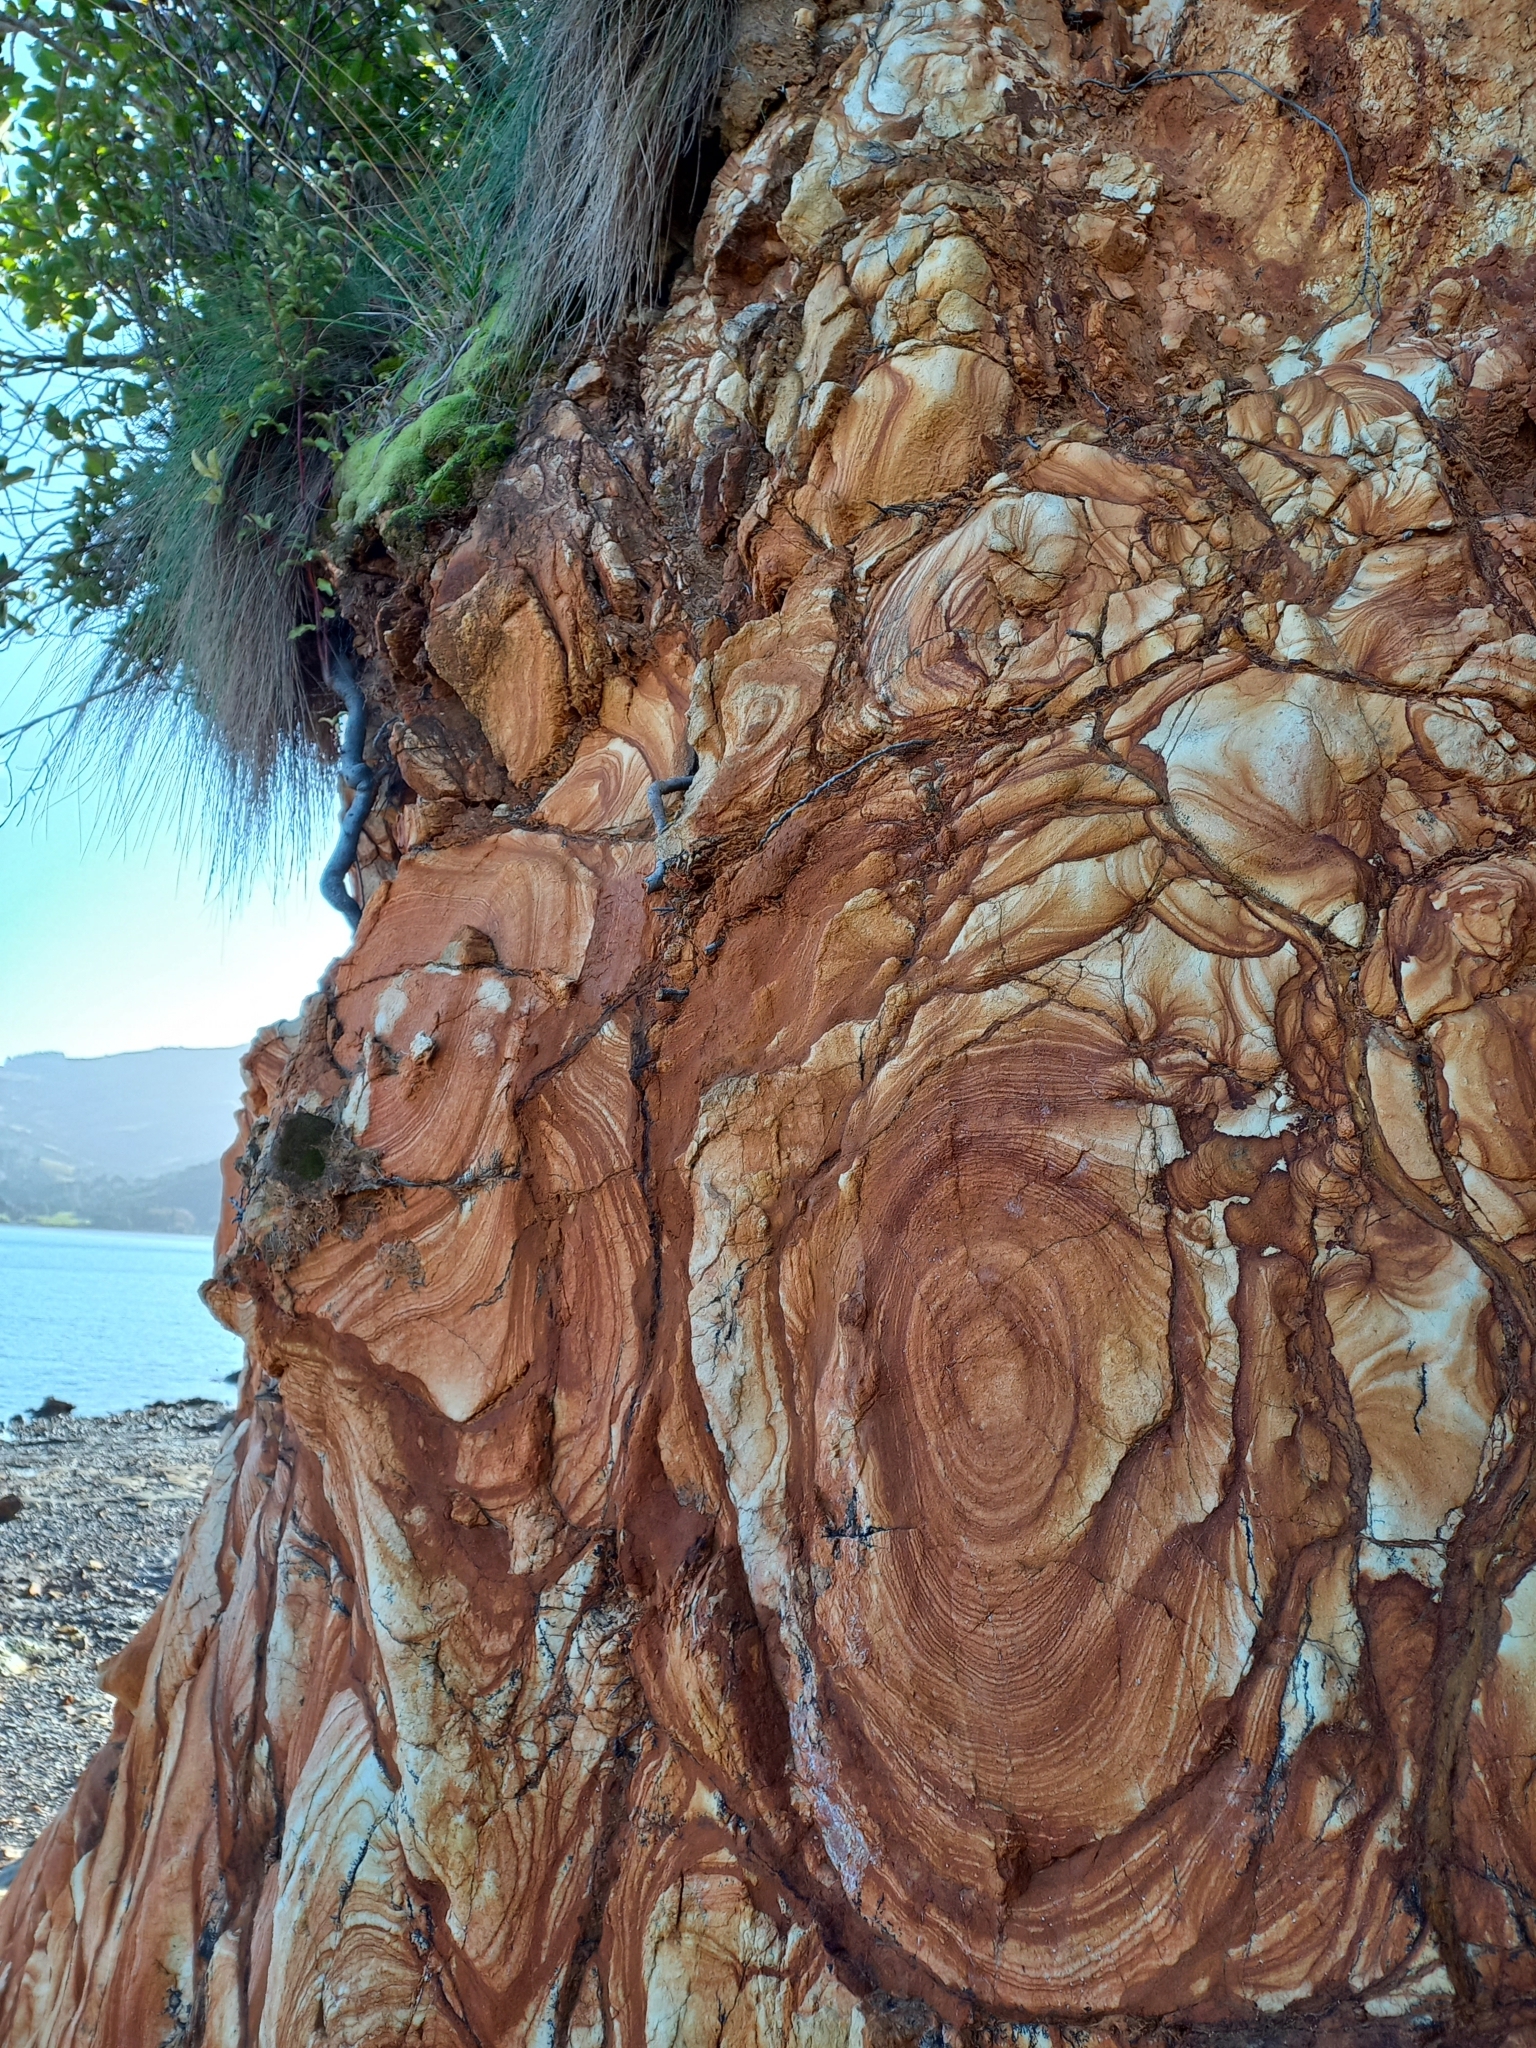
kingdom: Plantae
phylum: Tracheophyta
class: Liliopsida
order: Poales
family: Poaceae
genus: Festuca
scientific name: Festuca actae
